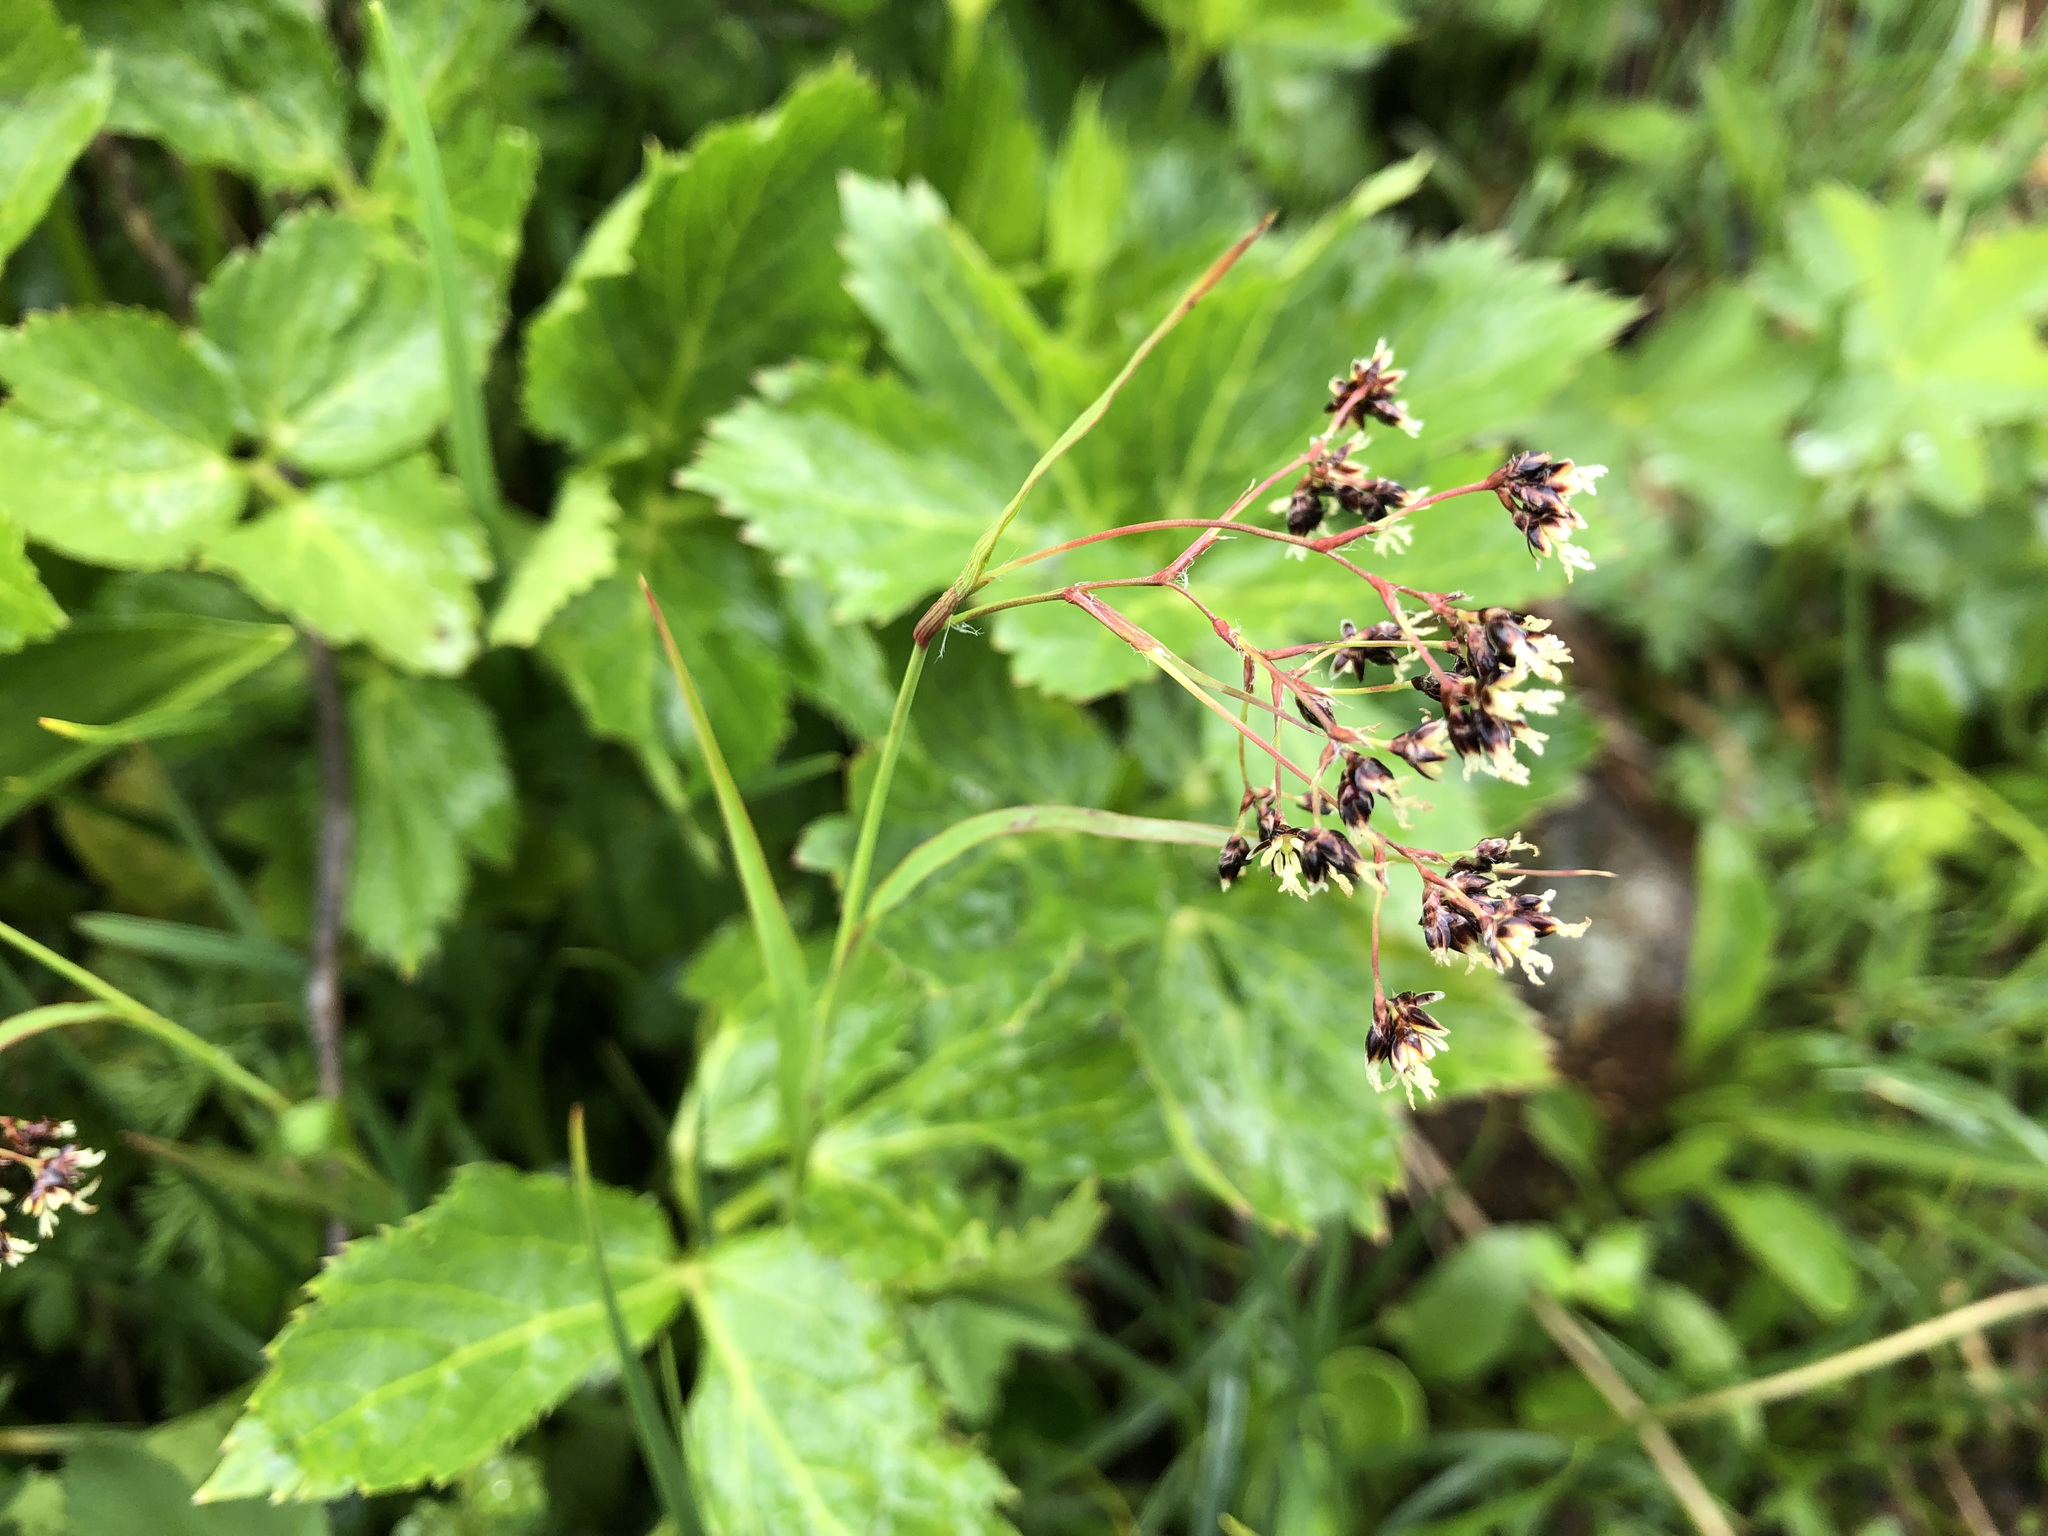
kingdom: Plantae
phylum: Tracheophyta
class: Liliopsida
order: Poales
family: Juncaceae
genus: Luzula
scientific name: Luzula alpinopilosa
